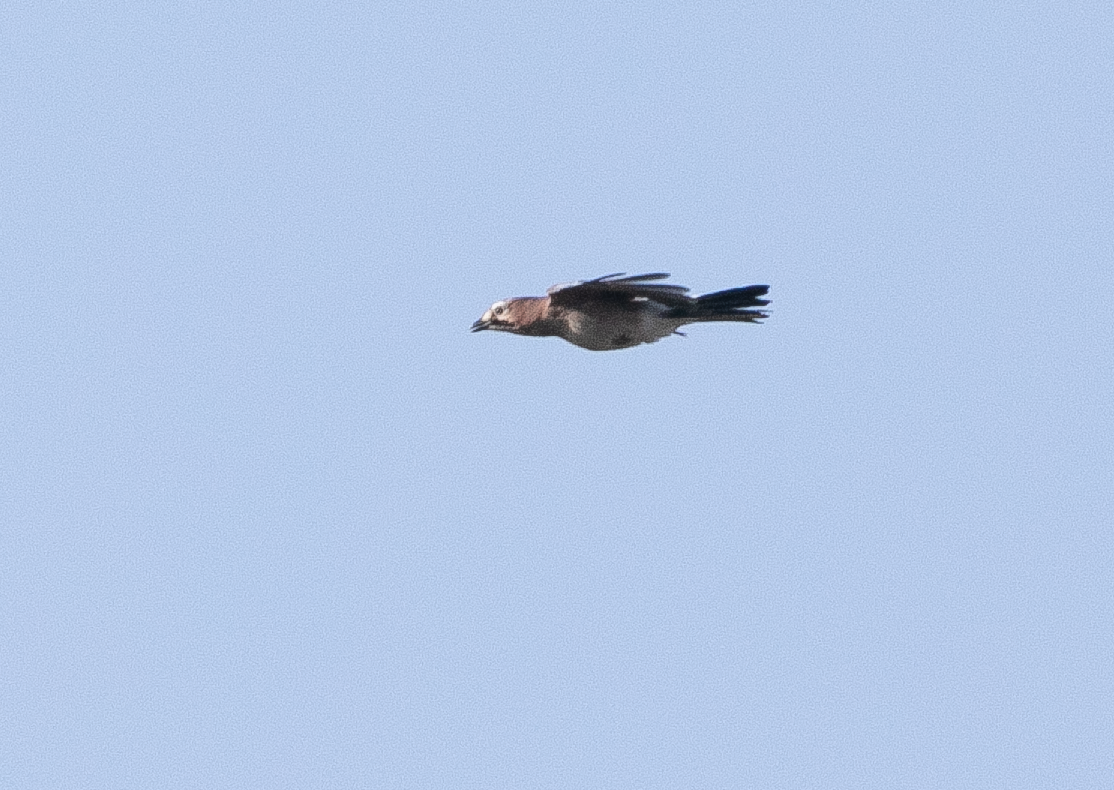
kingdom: Animalia
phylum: Chordata
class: Aves
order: Passeriformes
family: Corvidae
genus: Garrulus
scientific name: Garrulus glandarius
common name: Eurasian jay
